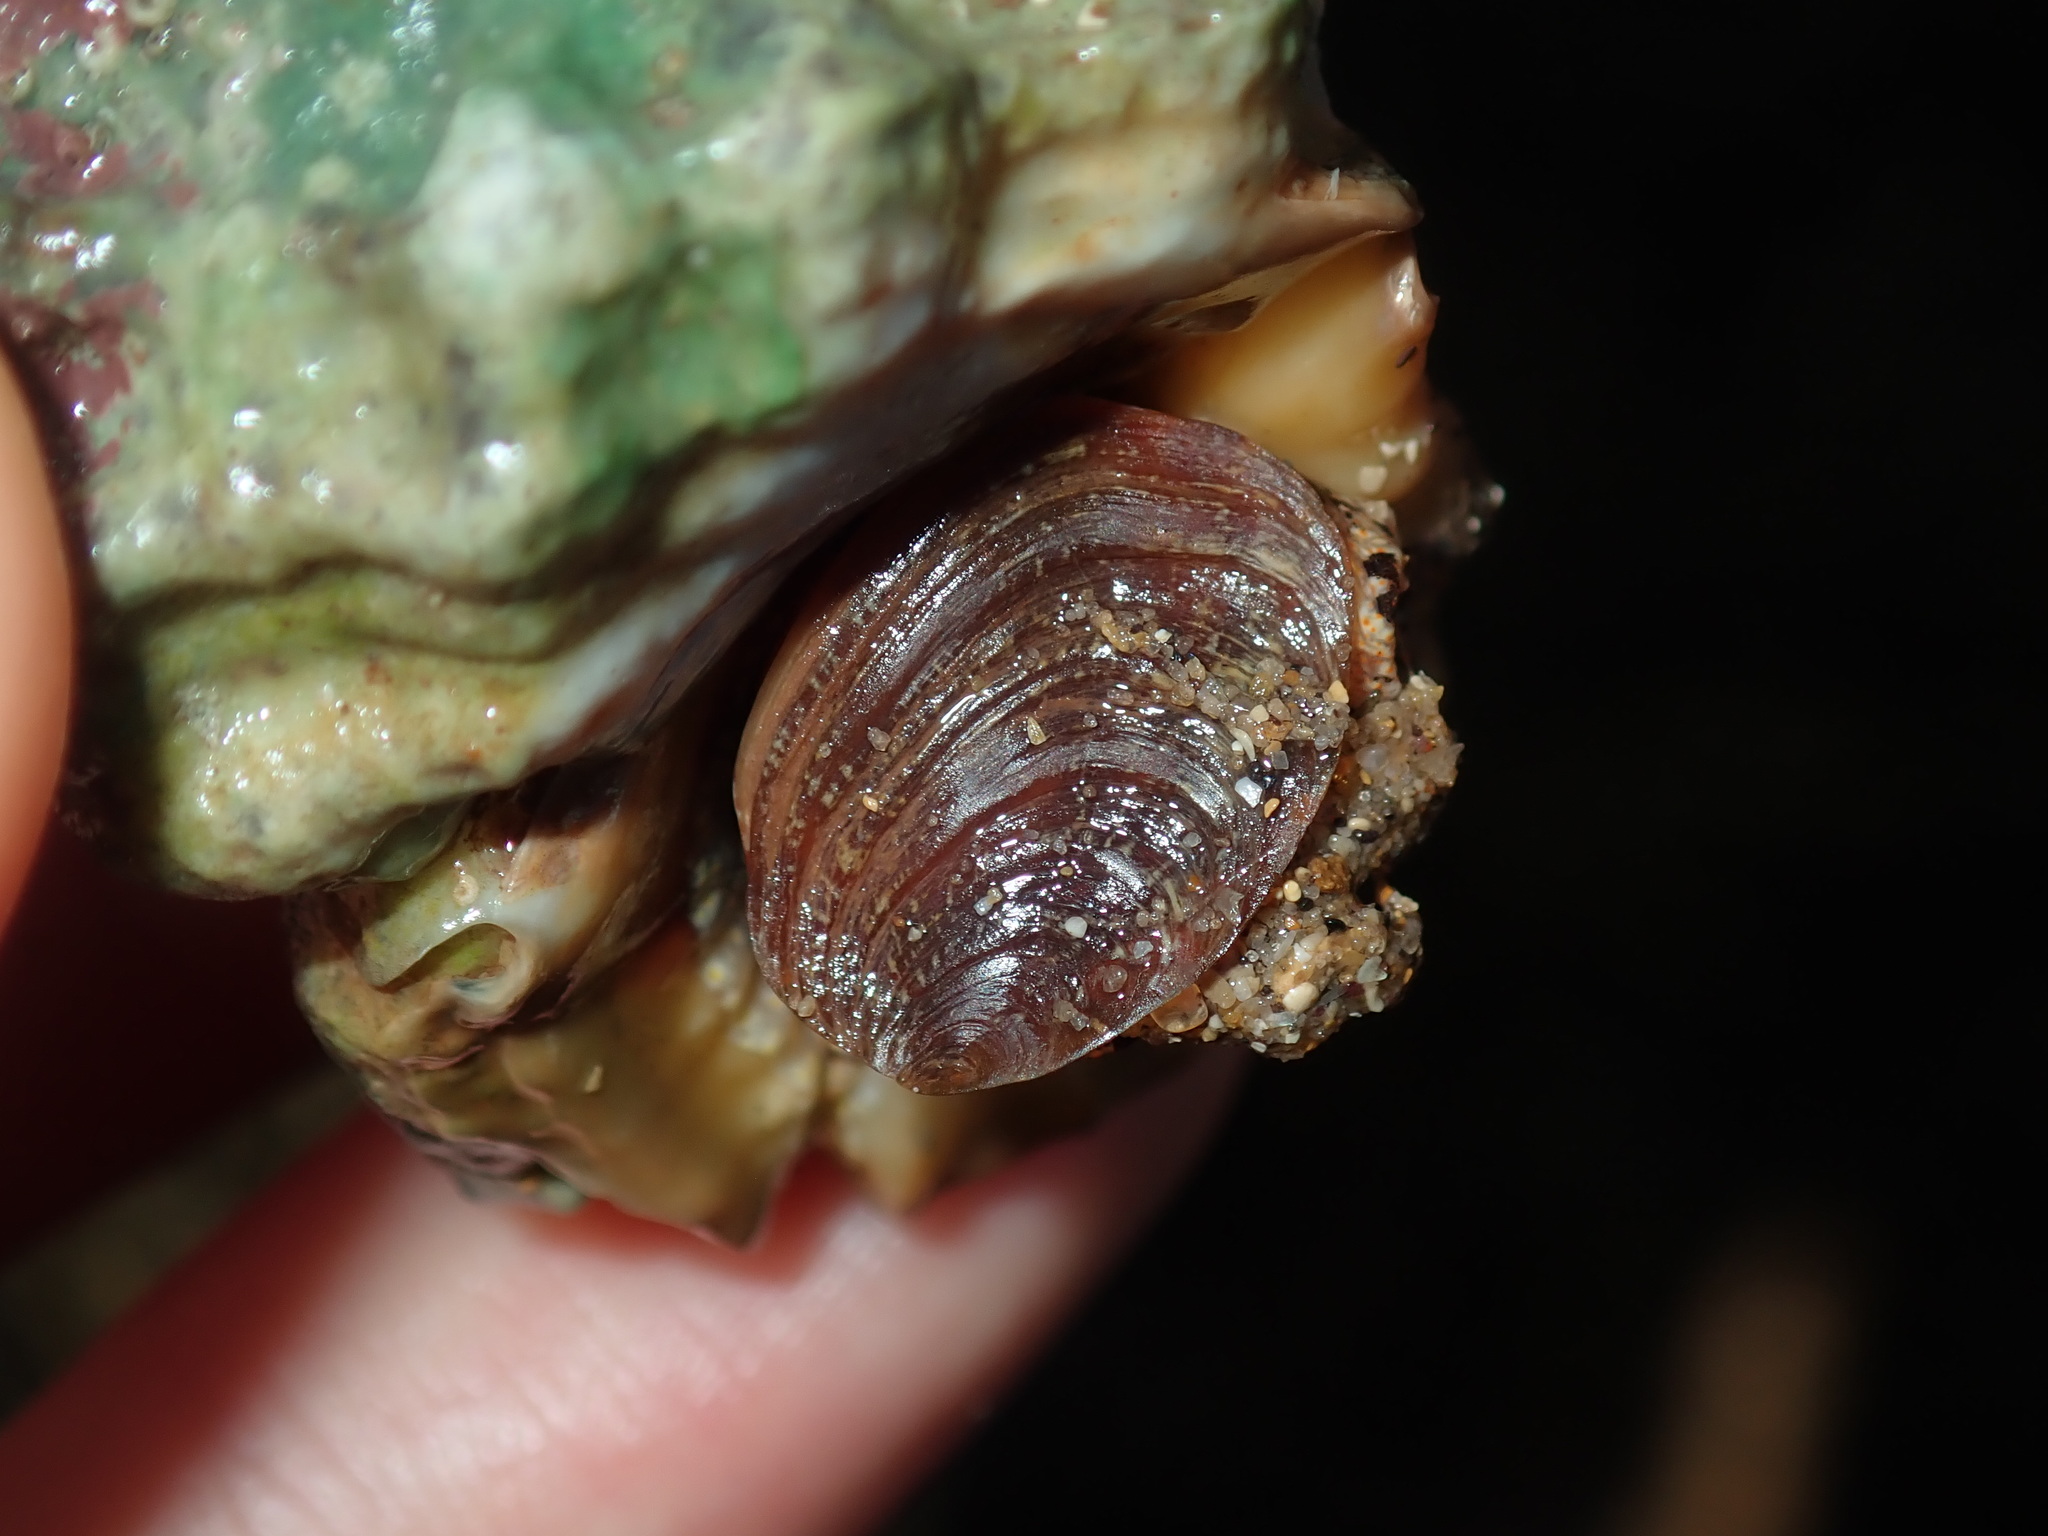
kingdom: Animalia
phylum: Mollusca
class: Gastropoda
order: Littorinimorpha
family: Bursidae
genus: Bursa
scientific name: Bursa rosa
